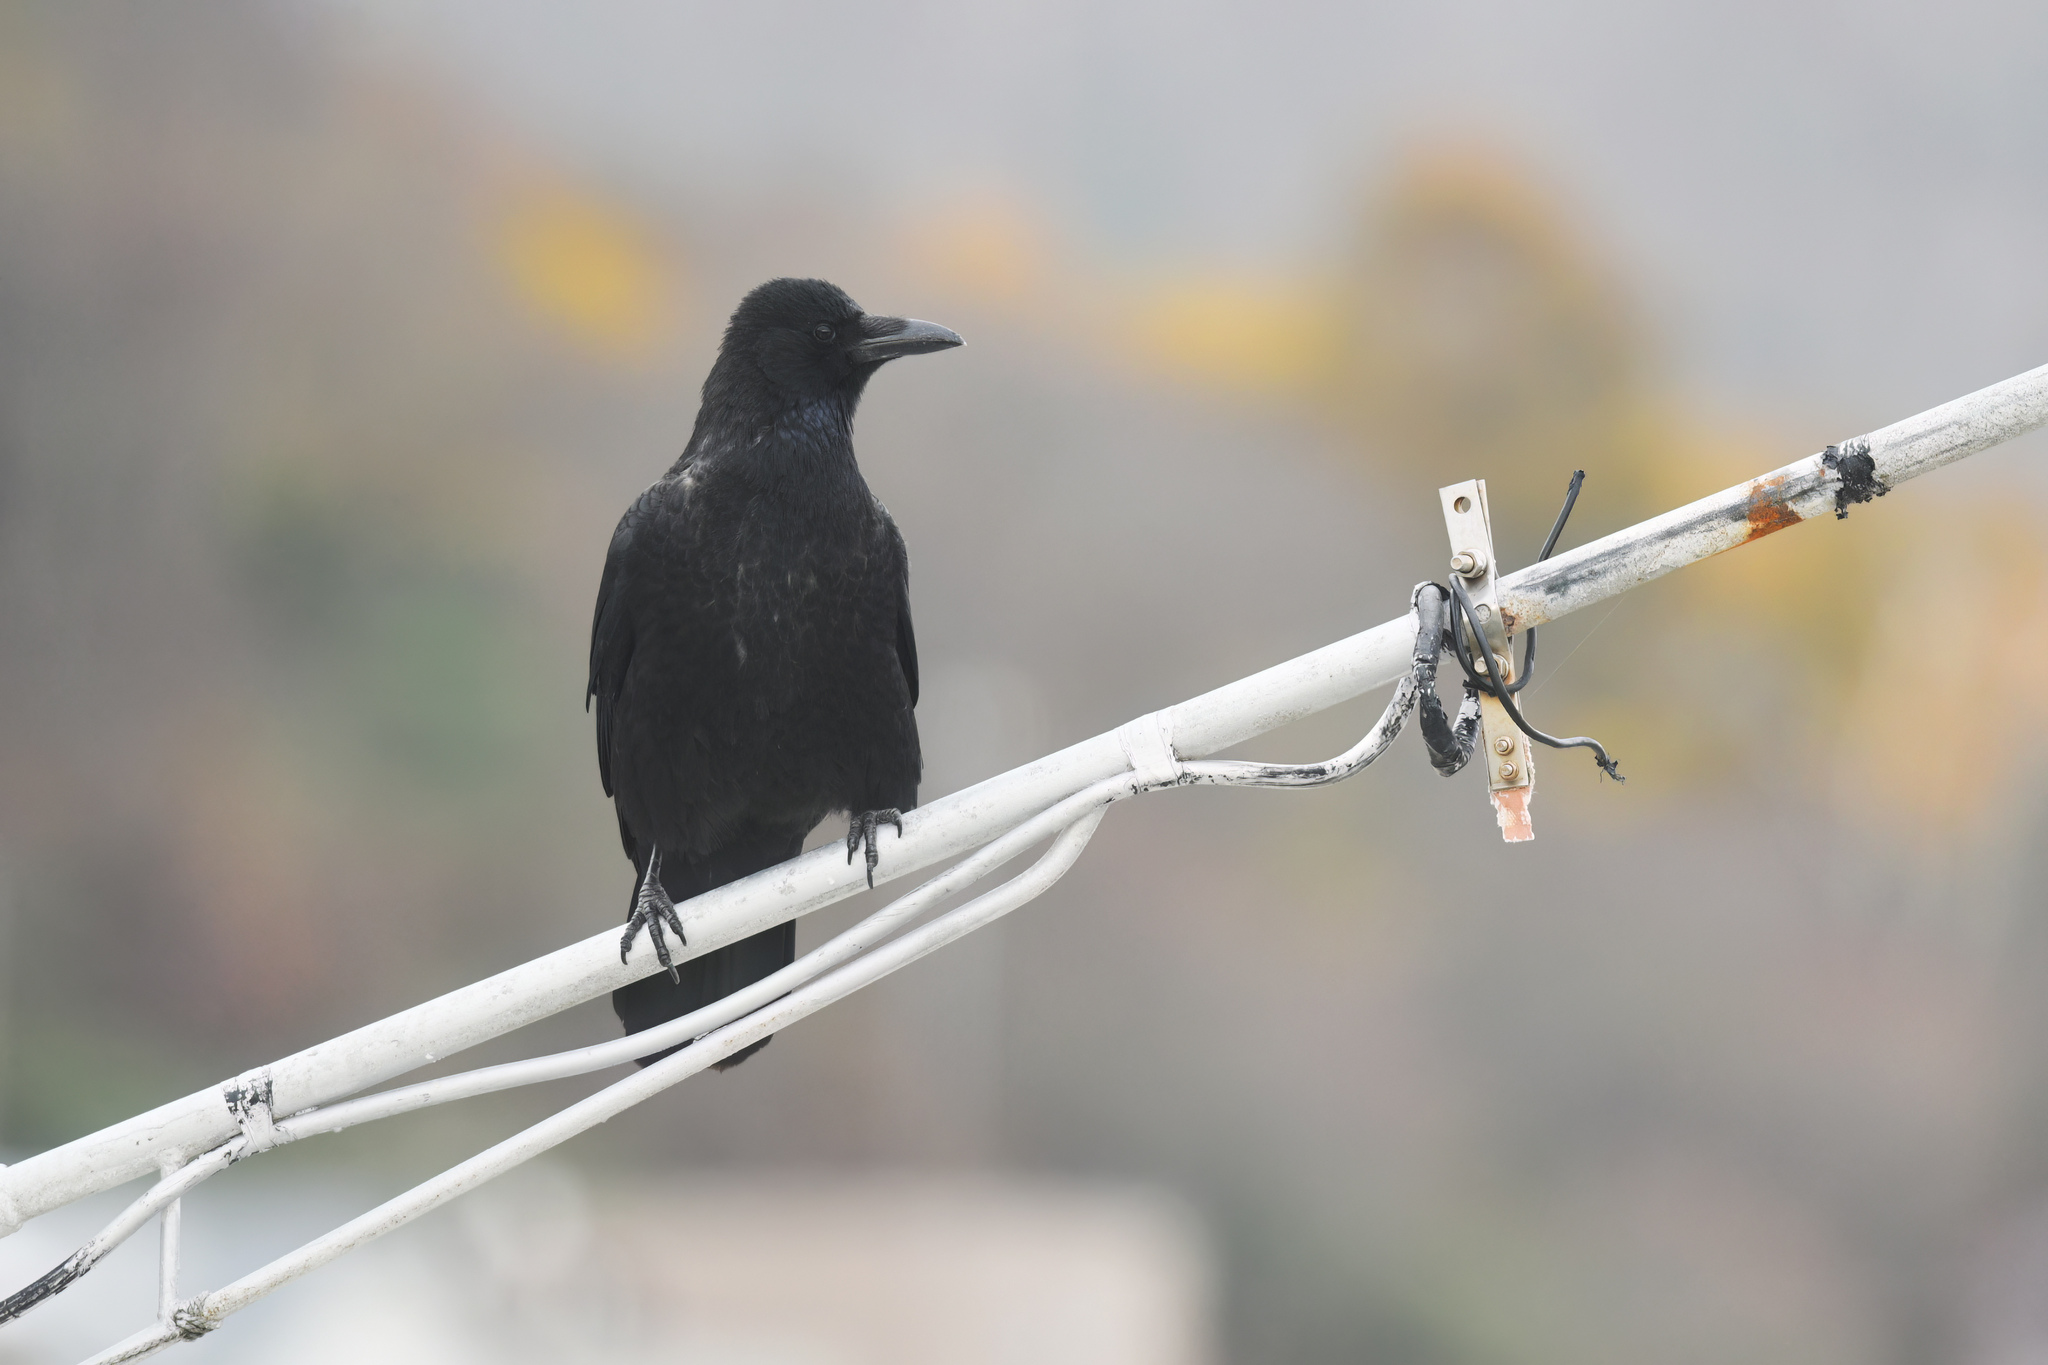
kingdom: Animalia
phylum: Chordata
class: Aves
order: Passeriformes
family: Corvidae
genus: Corvus
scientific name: Corvus corone
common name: Carrion crow
